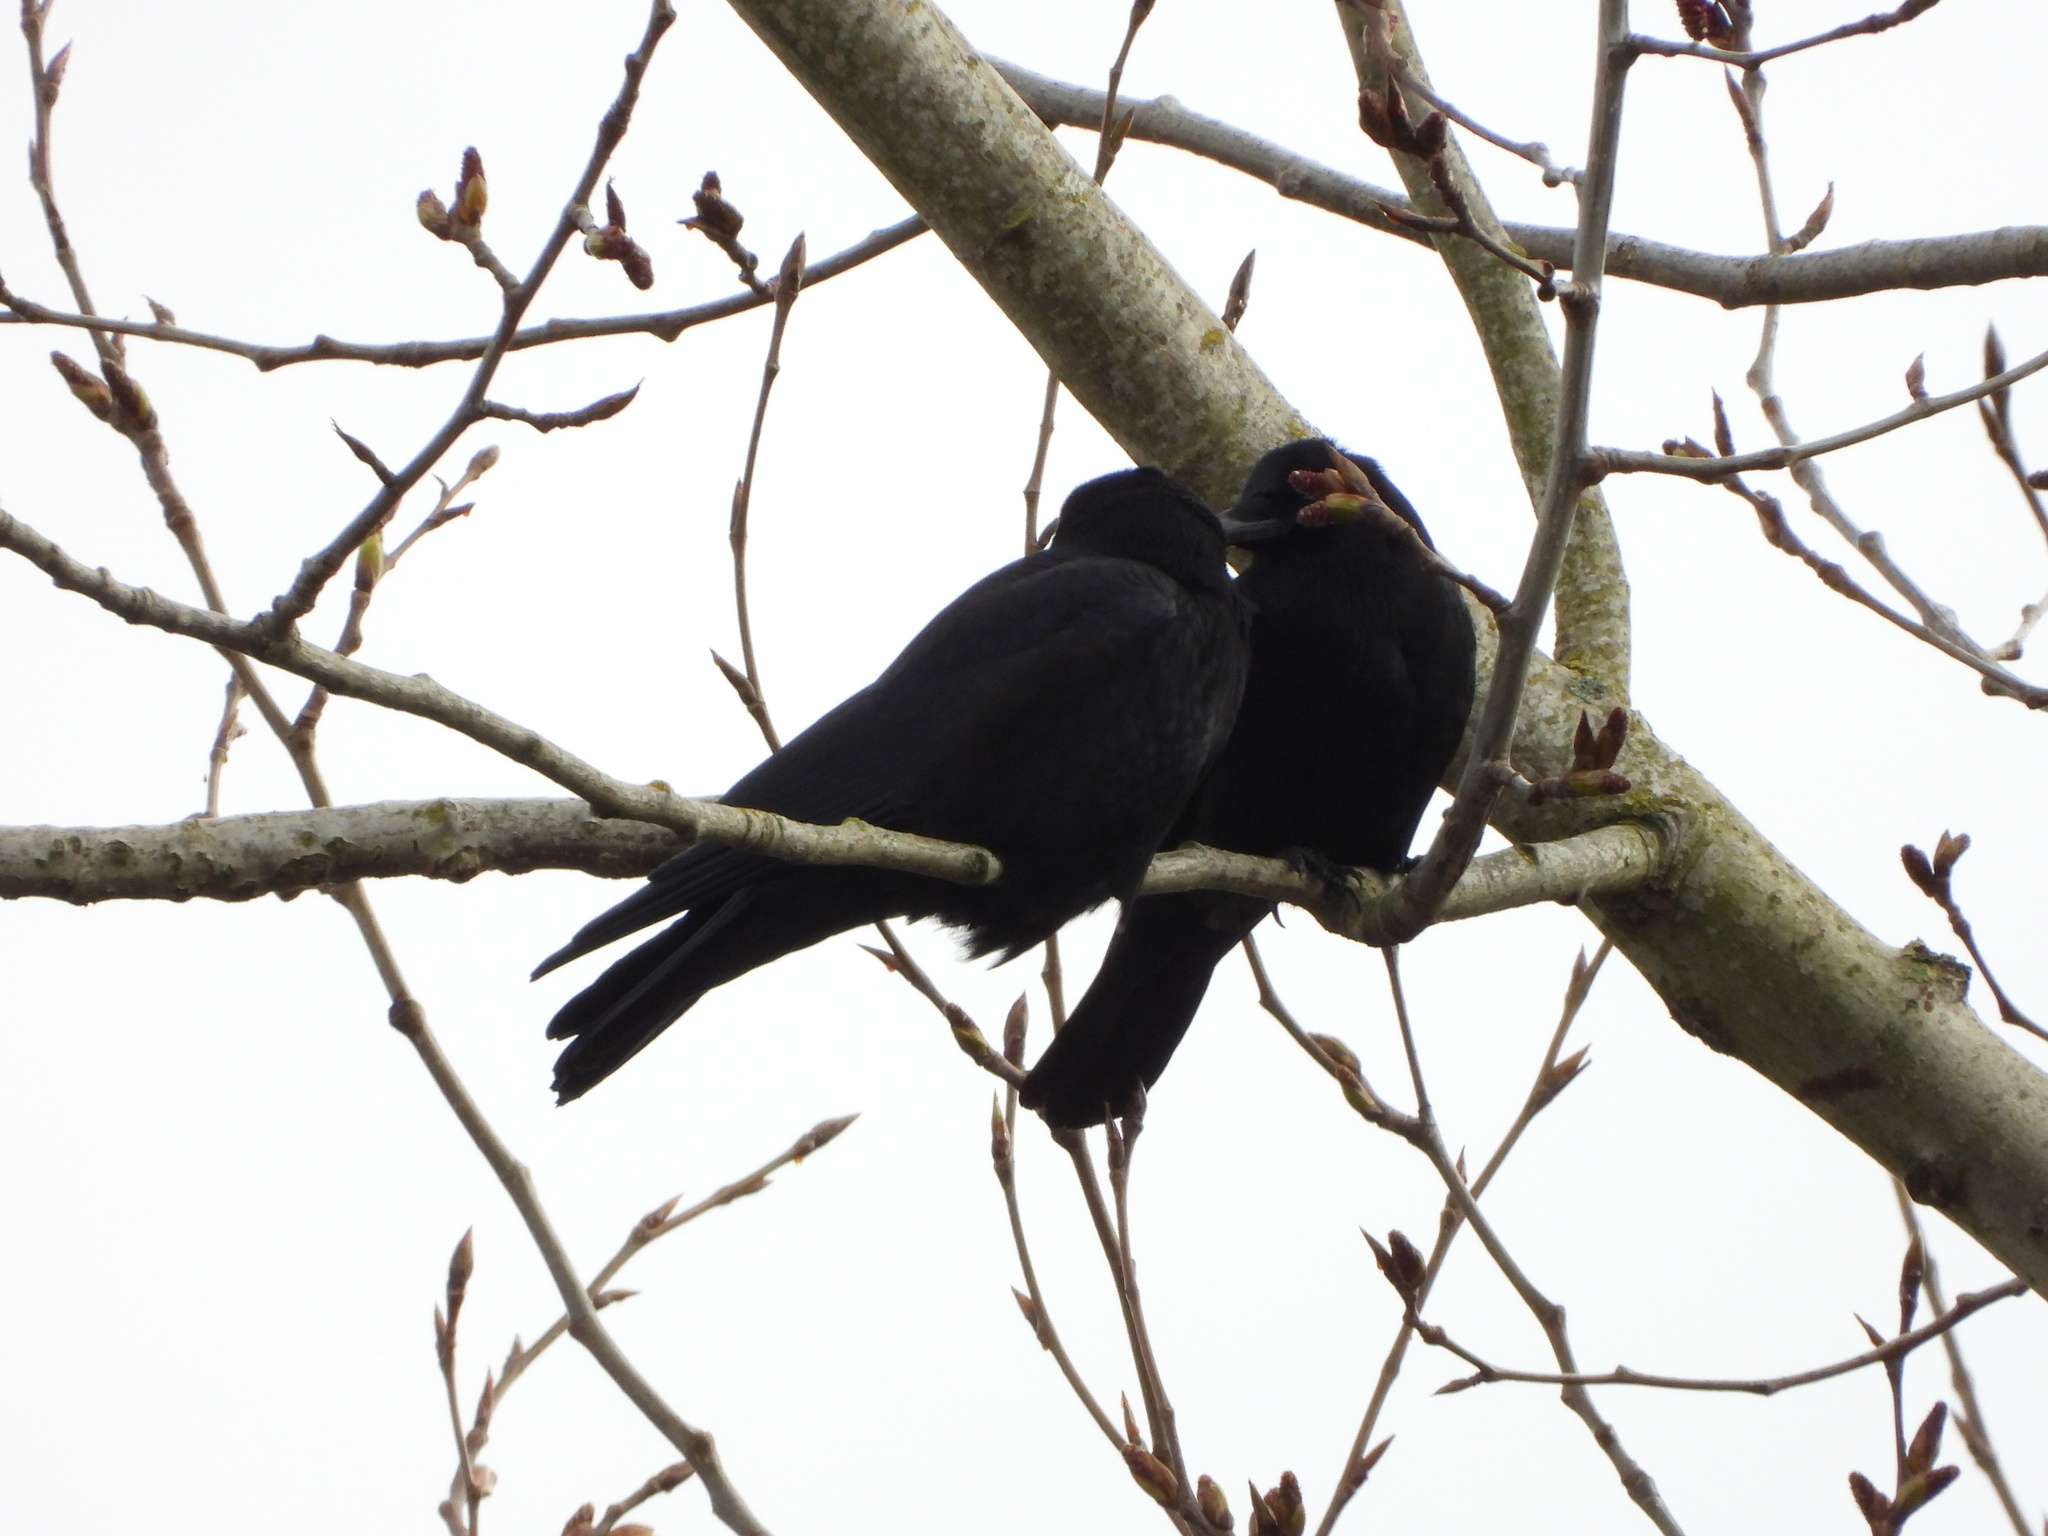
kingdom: Animalia
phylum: Chordata
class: Aves
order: Passeriformes
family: Corvidae
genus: Corvus
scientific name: Corvus brachyrhynchos
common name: American crow
